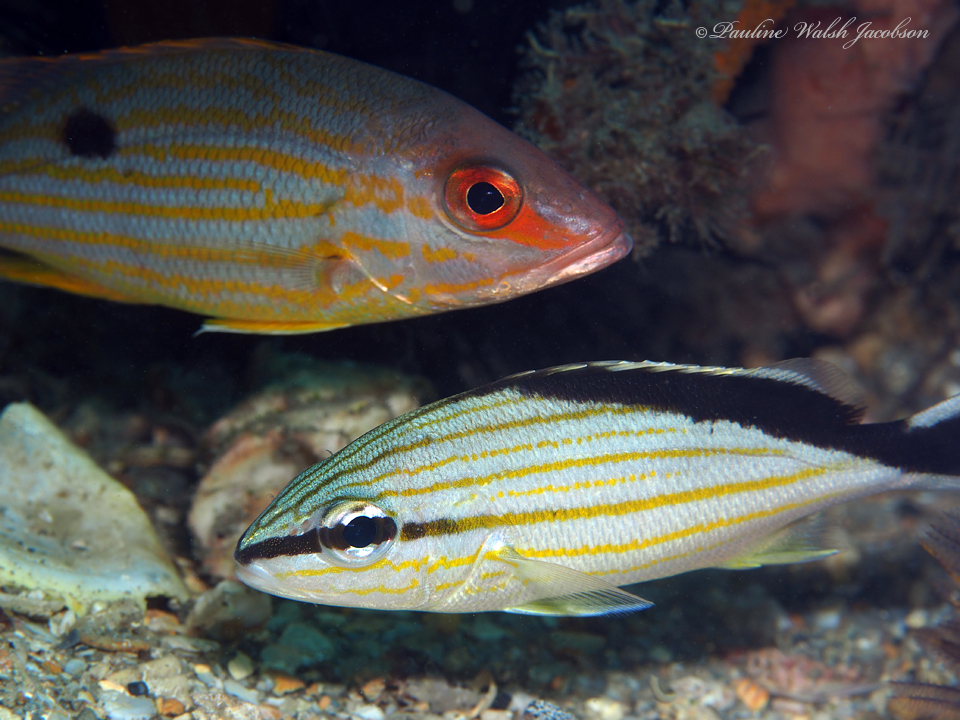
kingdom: Animalia
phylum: Chordata
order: Perciformes
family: Haemulidae
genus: Haemulon
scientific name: Haemulon melanurum
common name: Cottonwick
